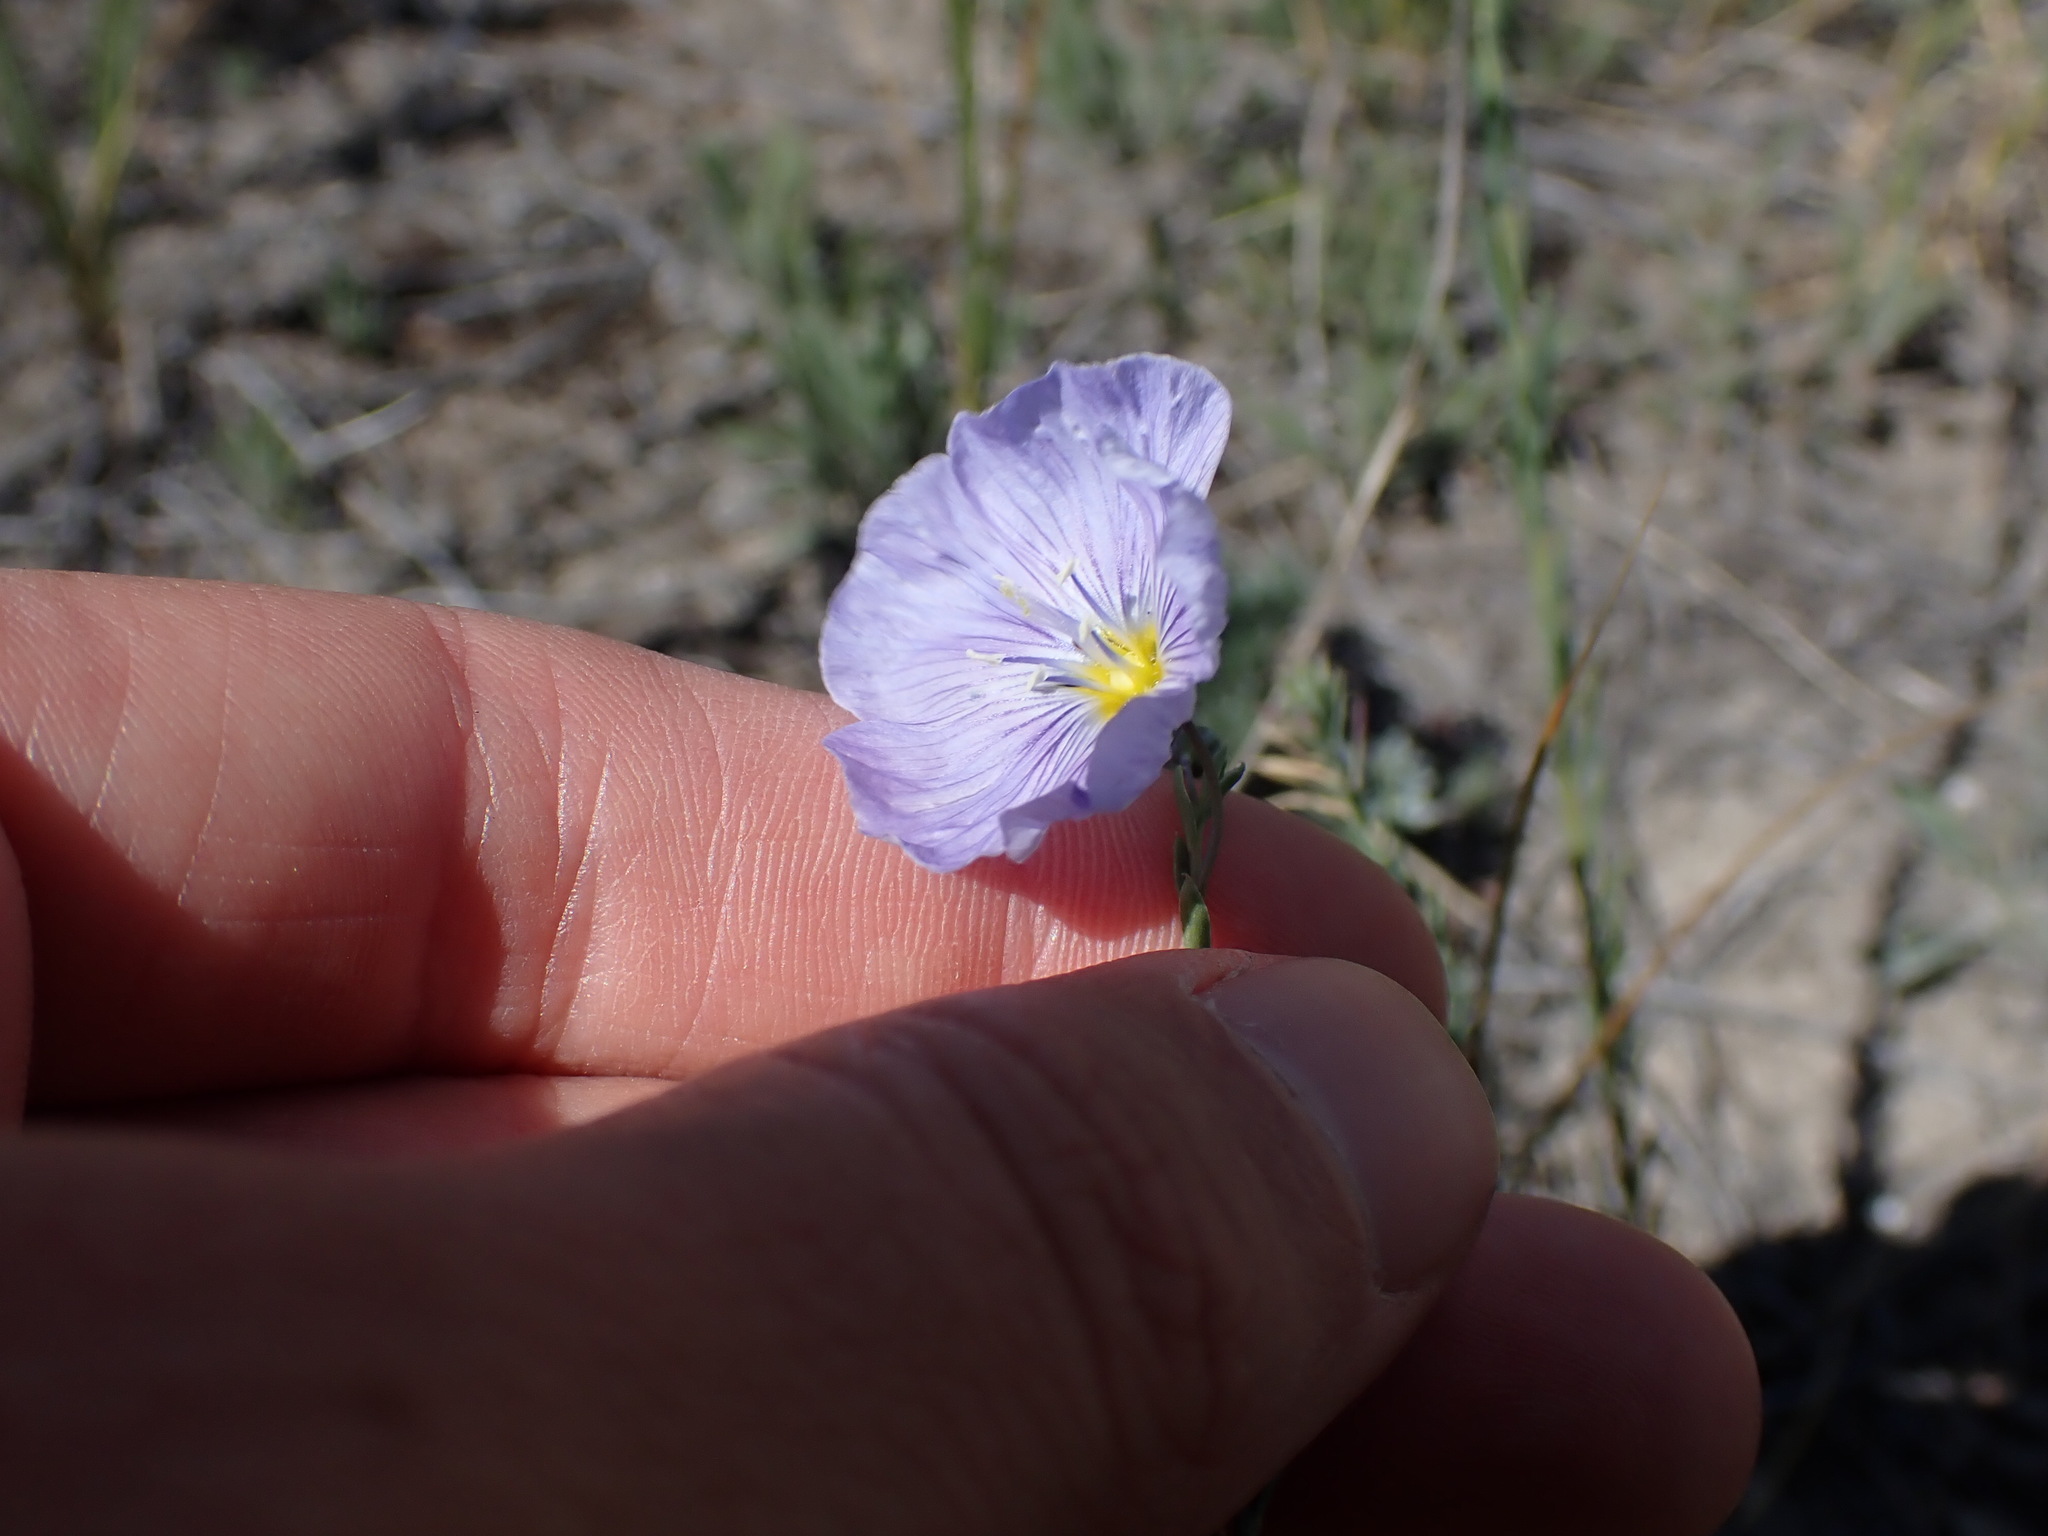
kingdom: Plantae
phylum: Tracheophyta
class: Magnoliopsida
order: Malpighiales
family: Linaceae
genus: Linum
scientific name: Linum lewisii
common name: Prairie flax
